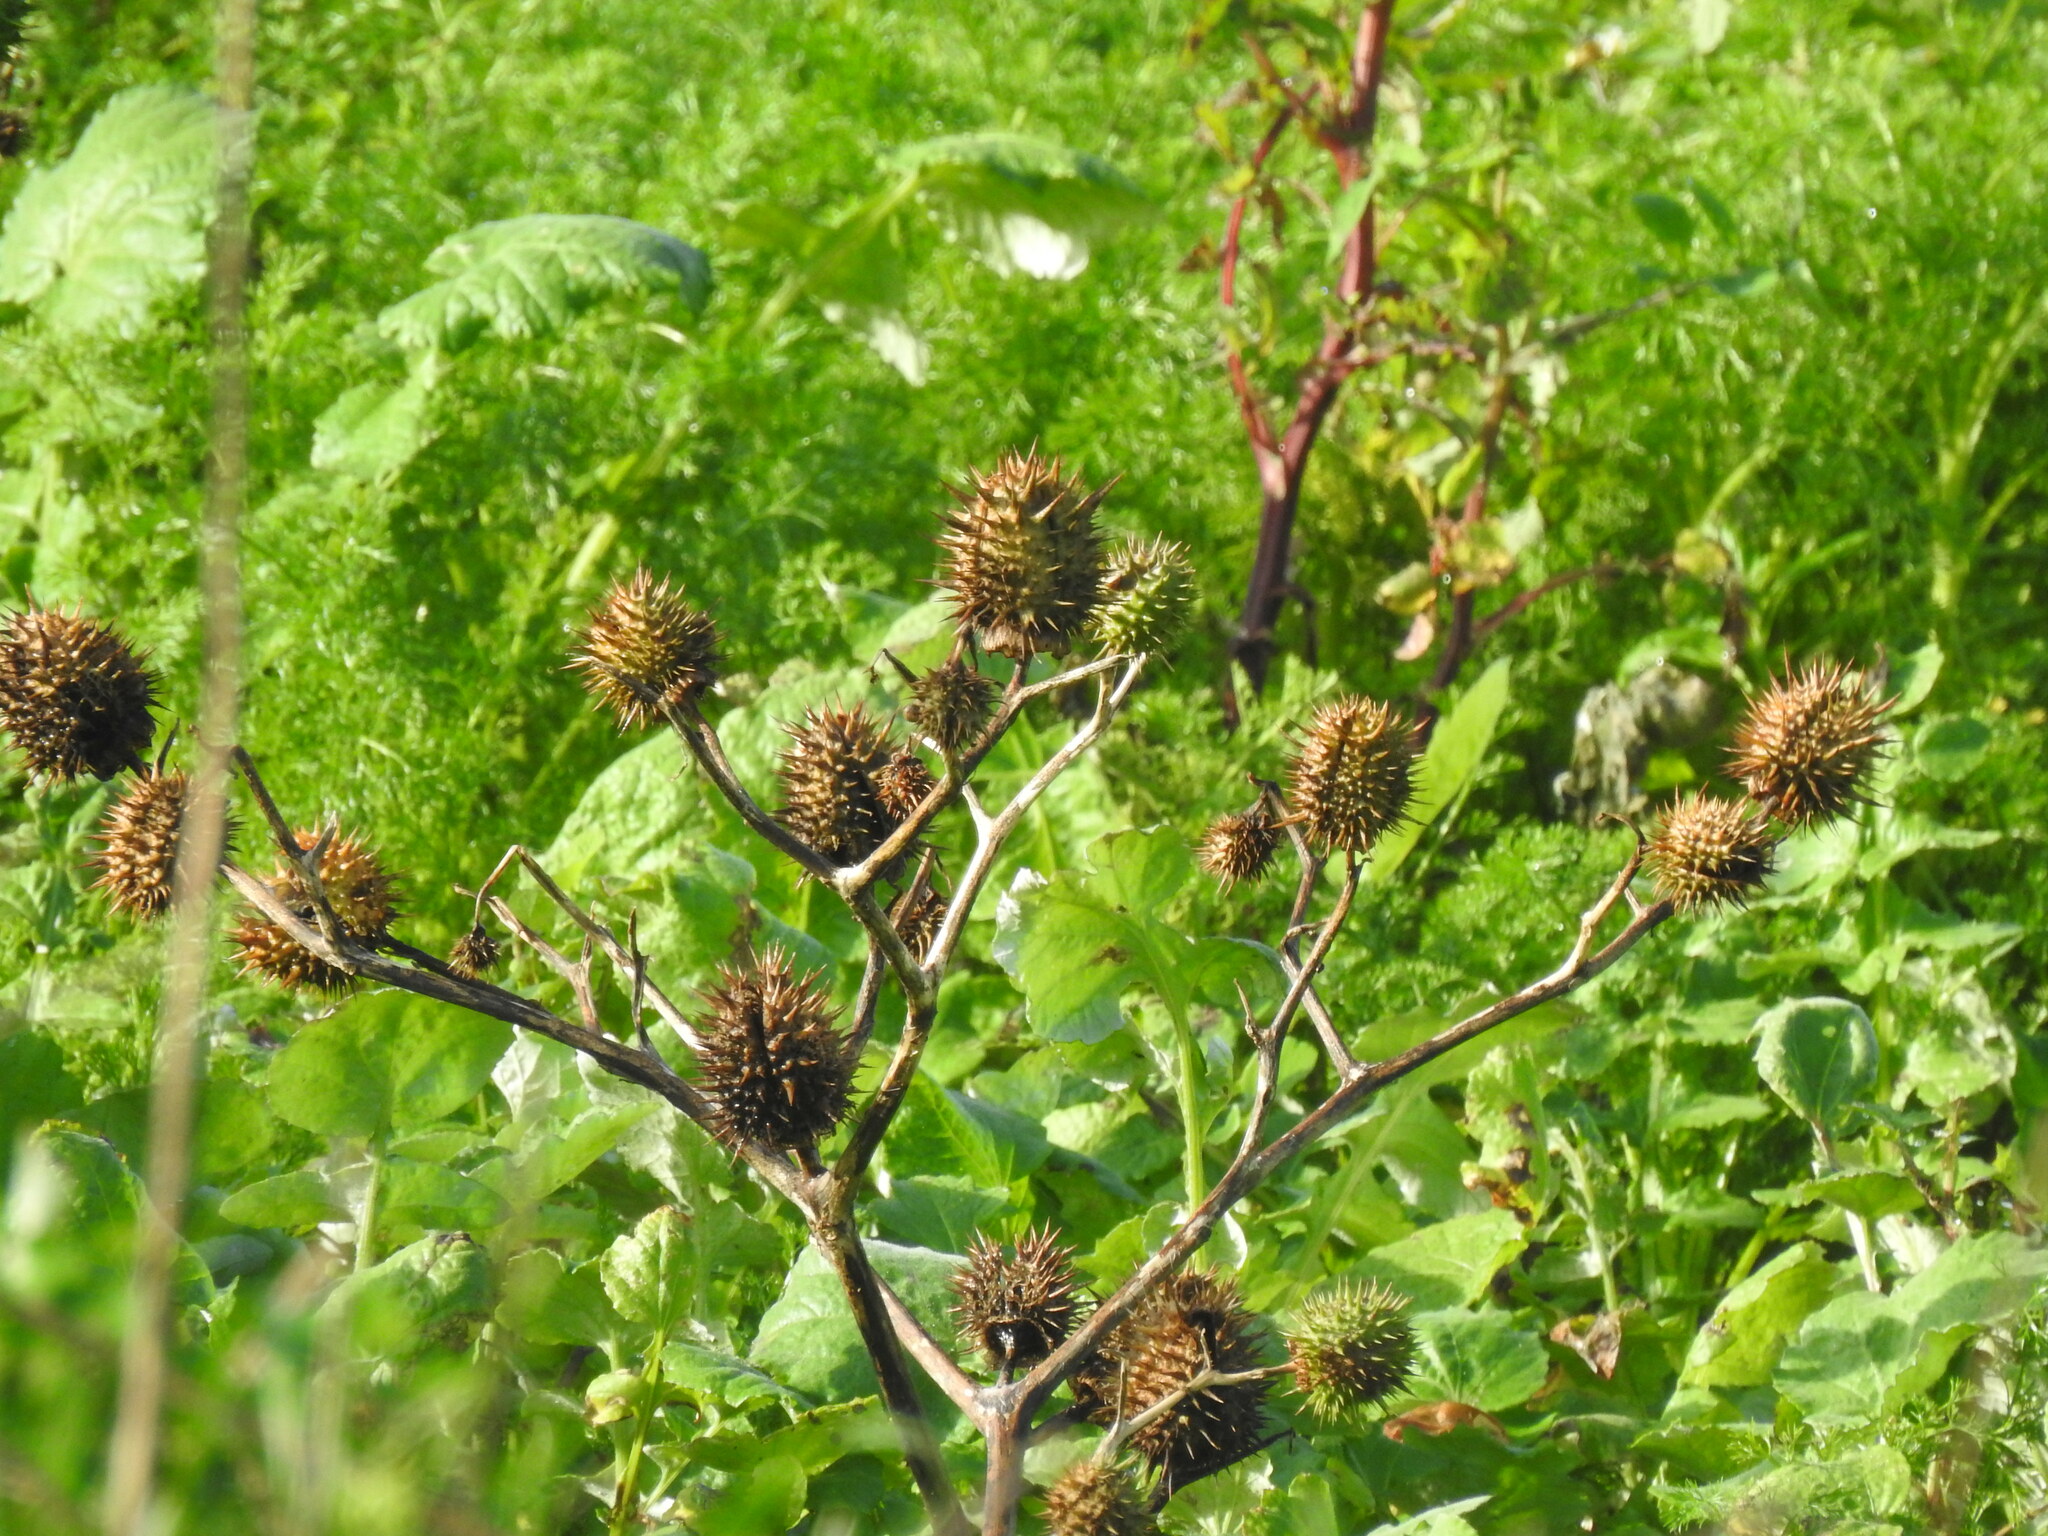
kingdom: Plantae
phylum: Tracheophyta
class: Magnoliopsida
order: Solanales
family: Solanaceae
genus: Datura
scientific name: Datura stramonium
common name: Thorn-apple
